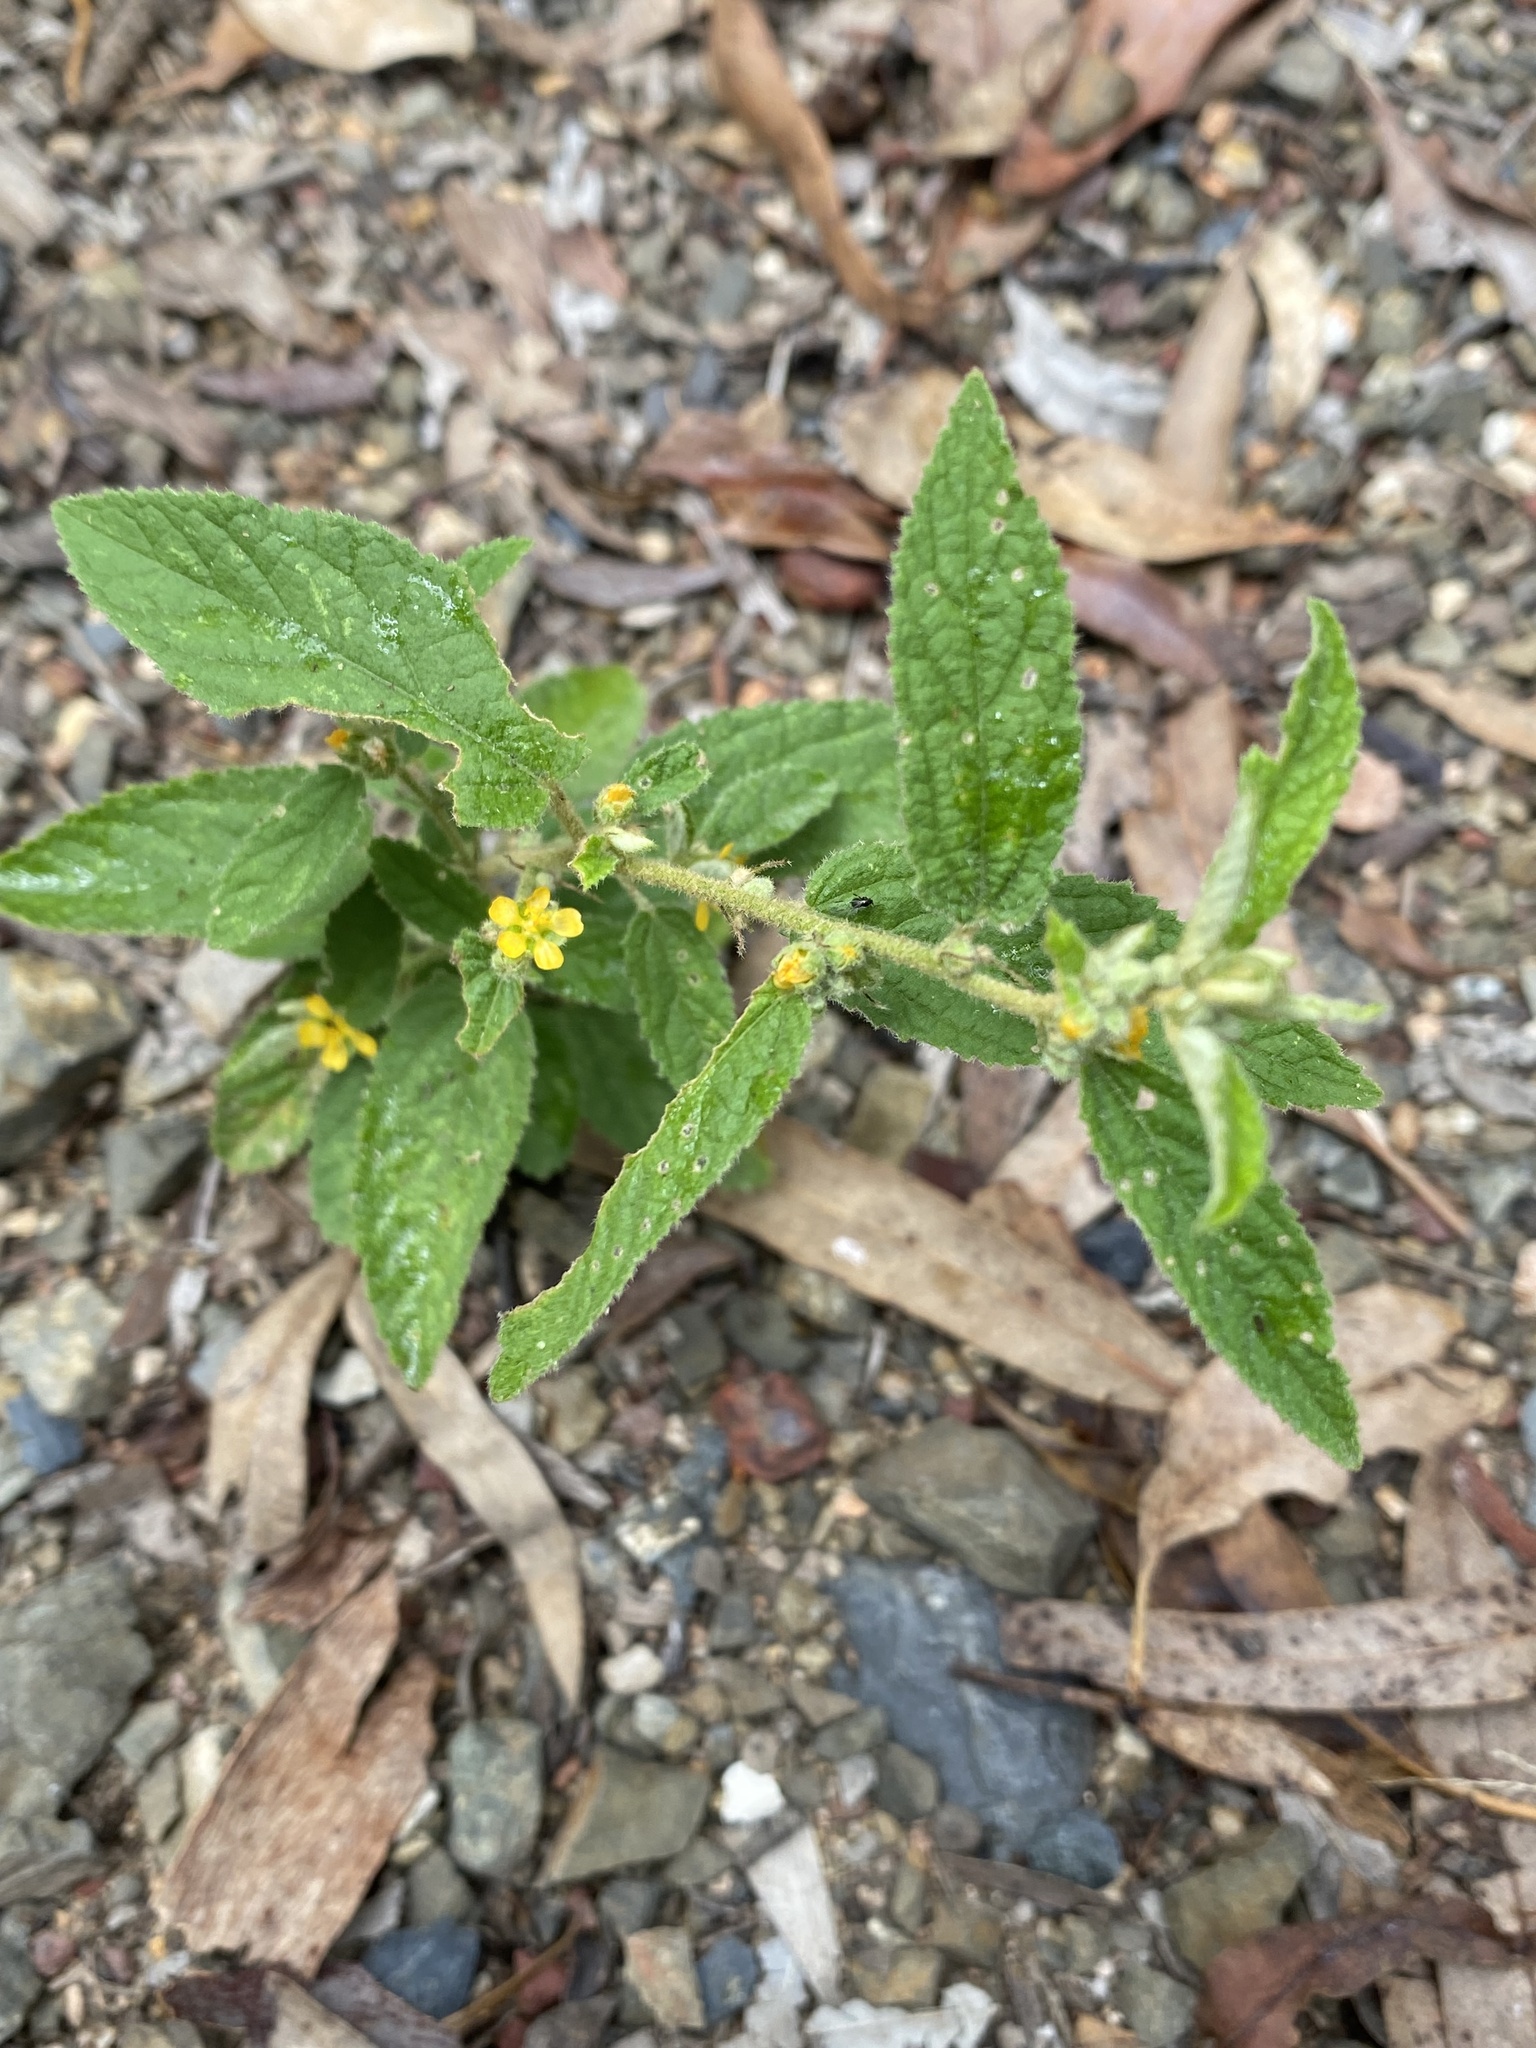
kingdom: Plantae
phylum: Tracheophyta
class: Magnoliopsida
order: Malvales
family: Malvaceae
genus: Sida
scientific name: Sida hackettiana
